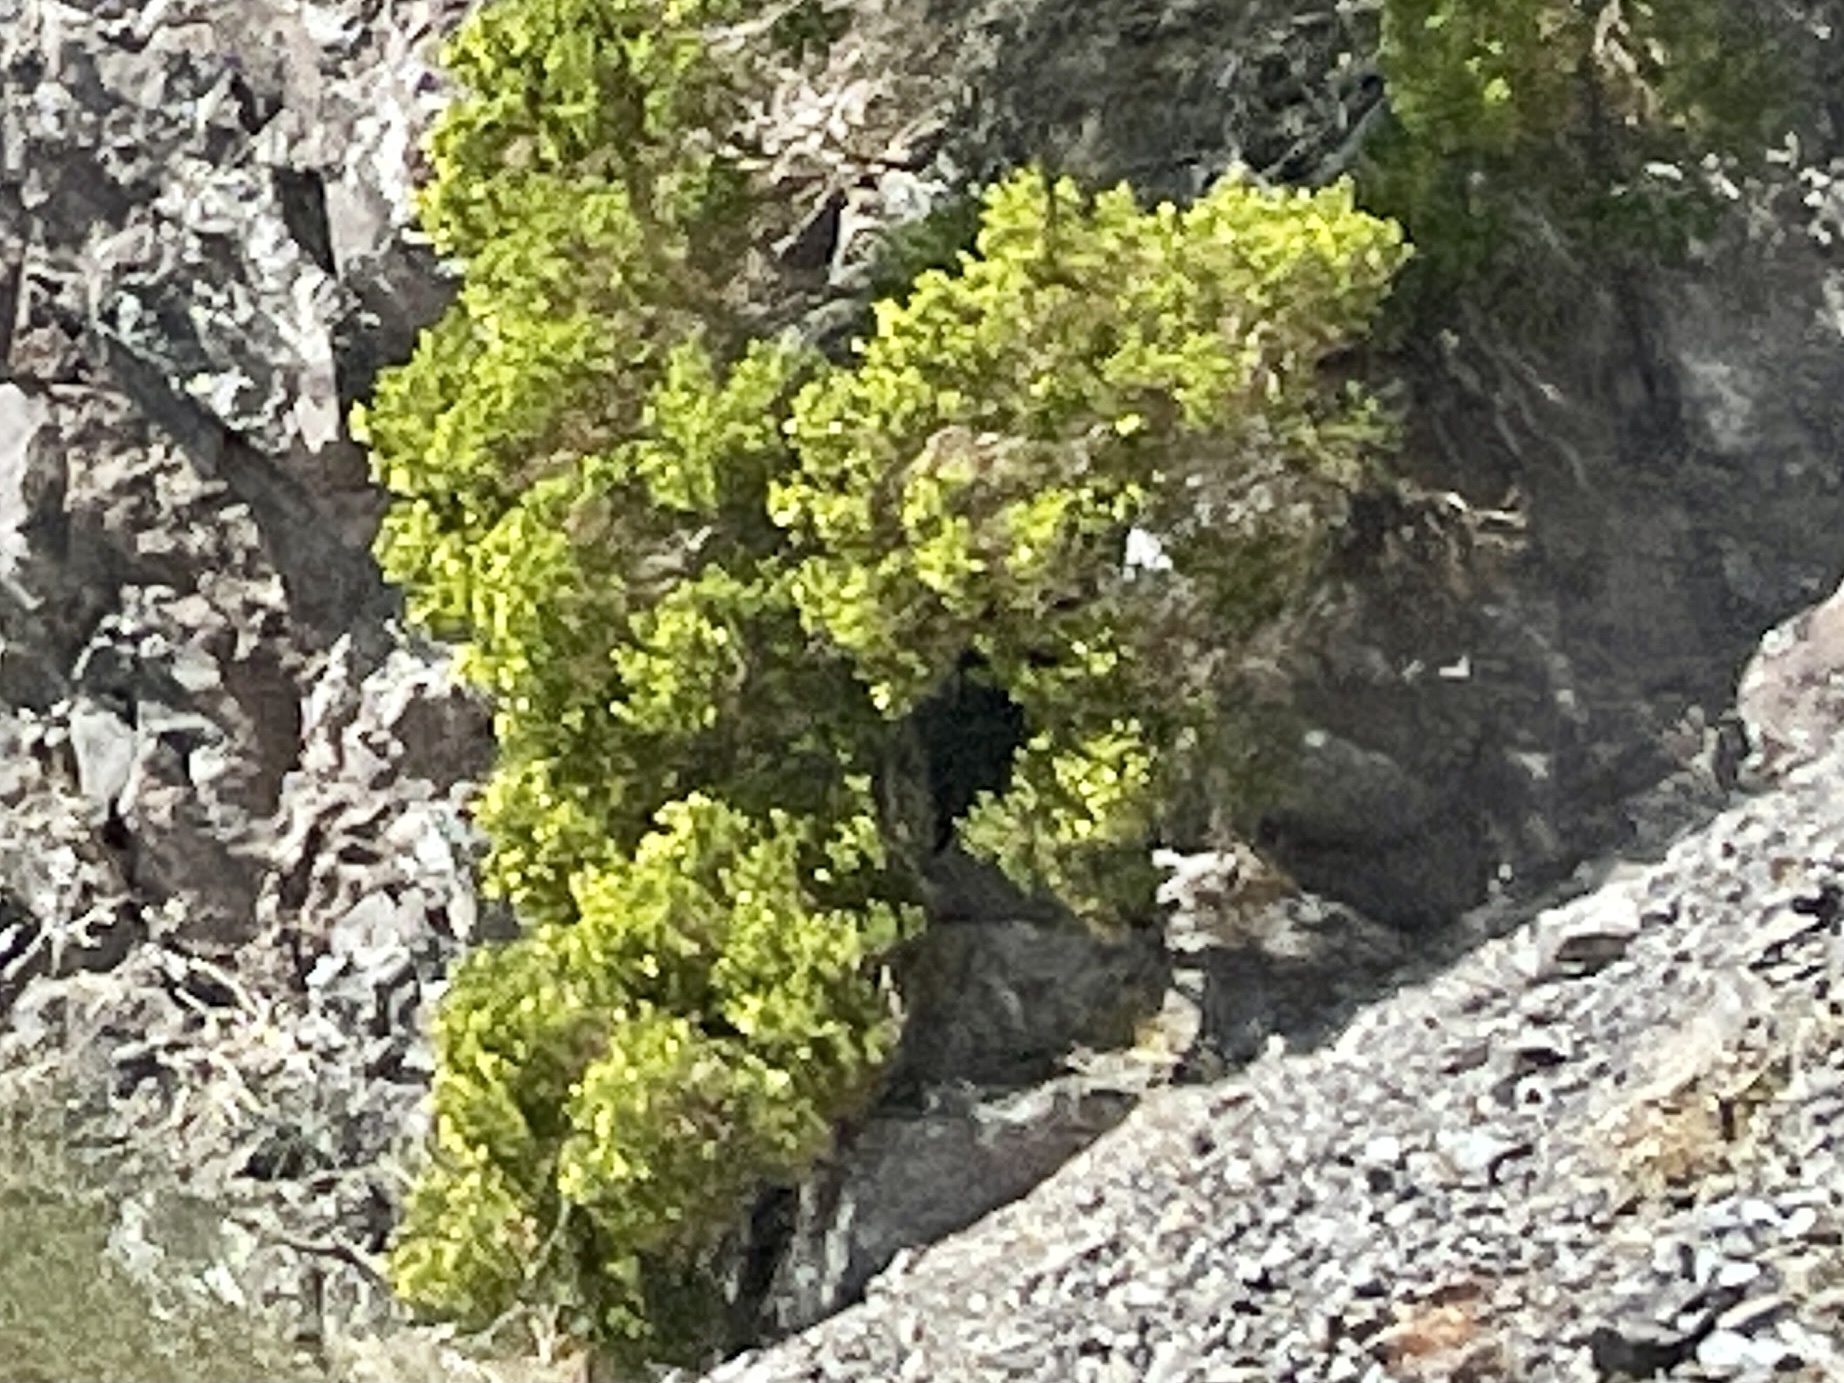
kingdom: Plantae
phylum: Tracheophyta
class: Magnoliopsida
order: Asterales
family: Asteraceae
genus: Peucephyllum
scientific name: Peucephyllum schottii
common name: Pygmy-cedar
